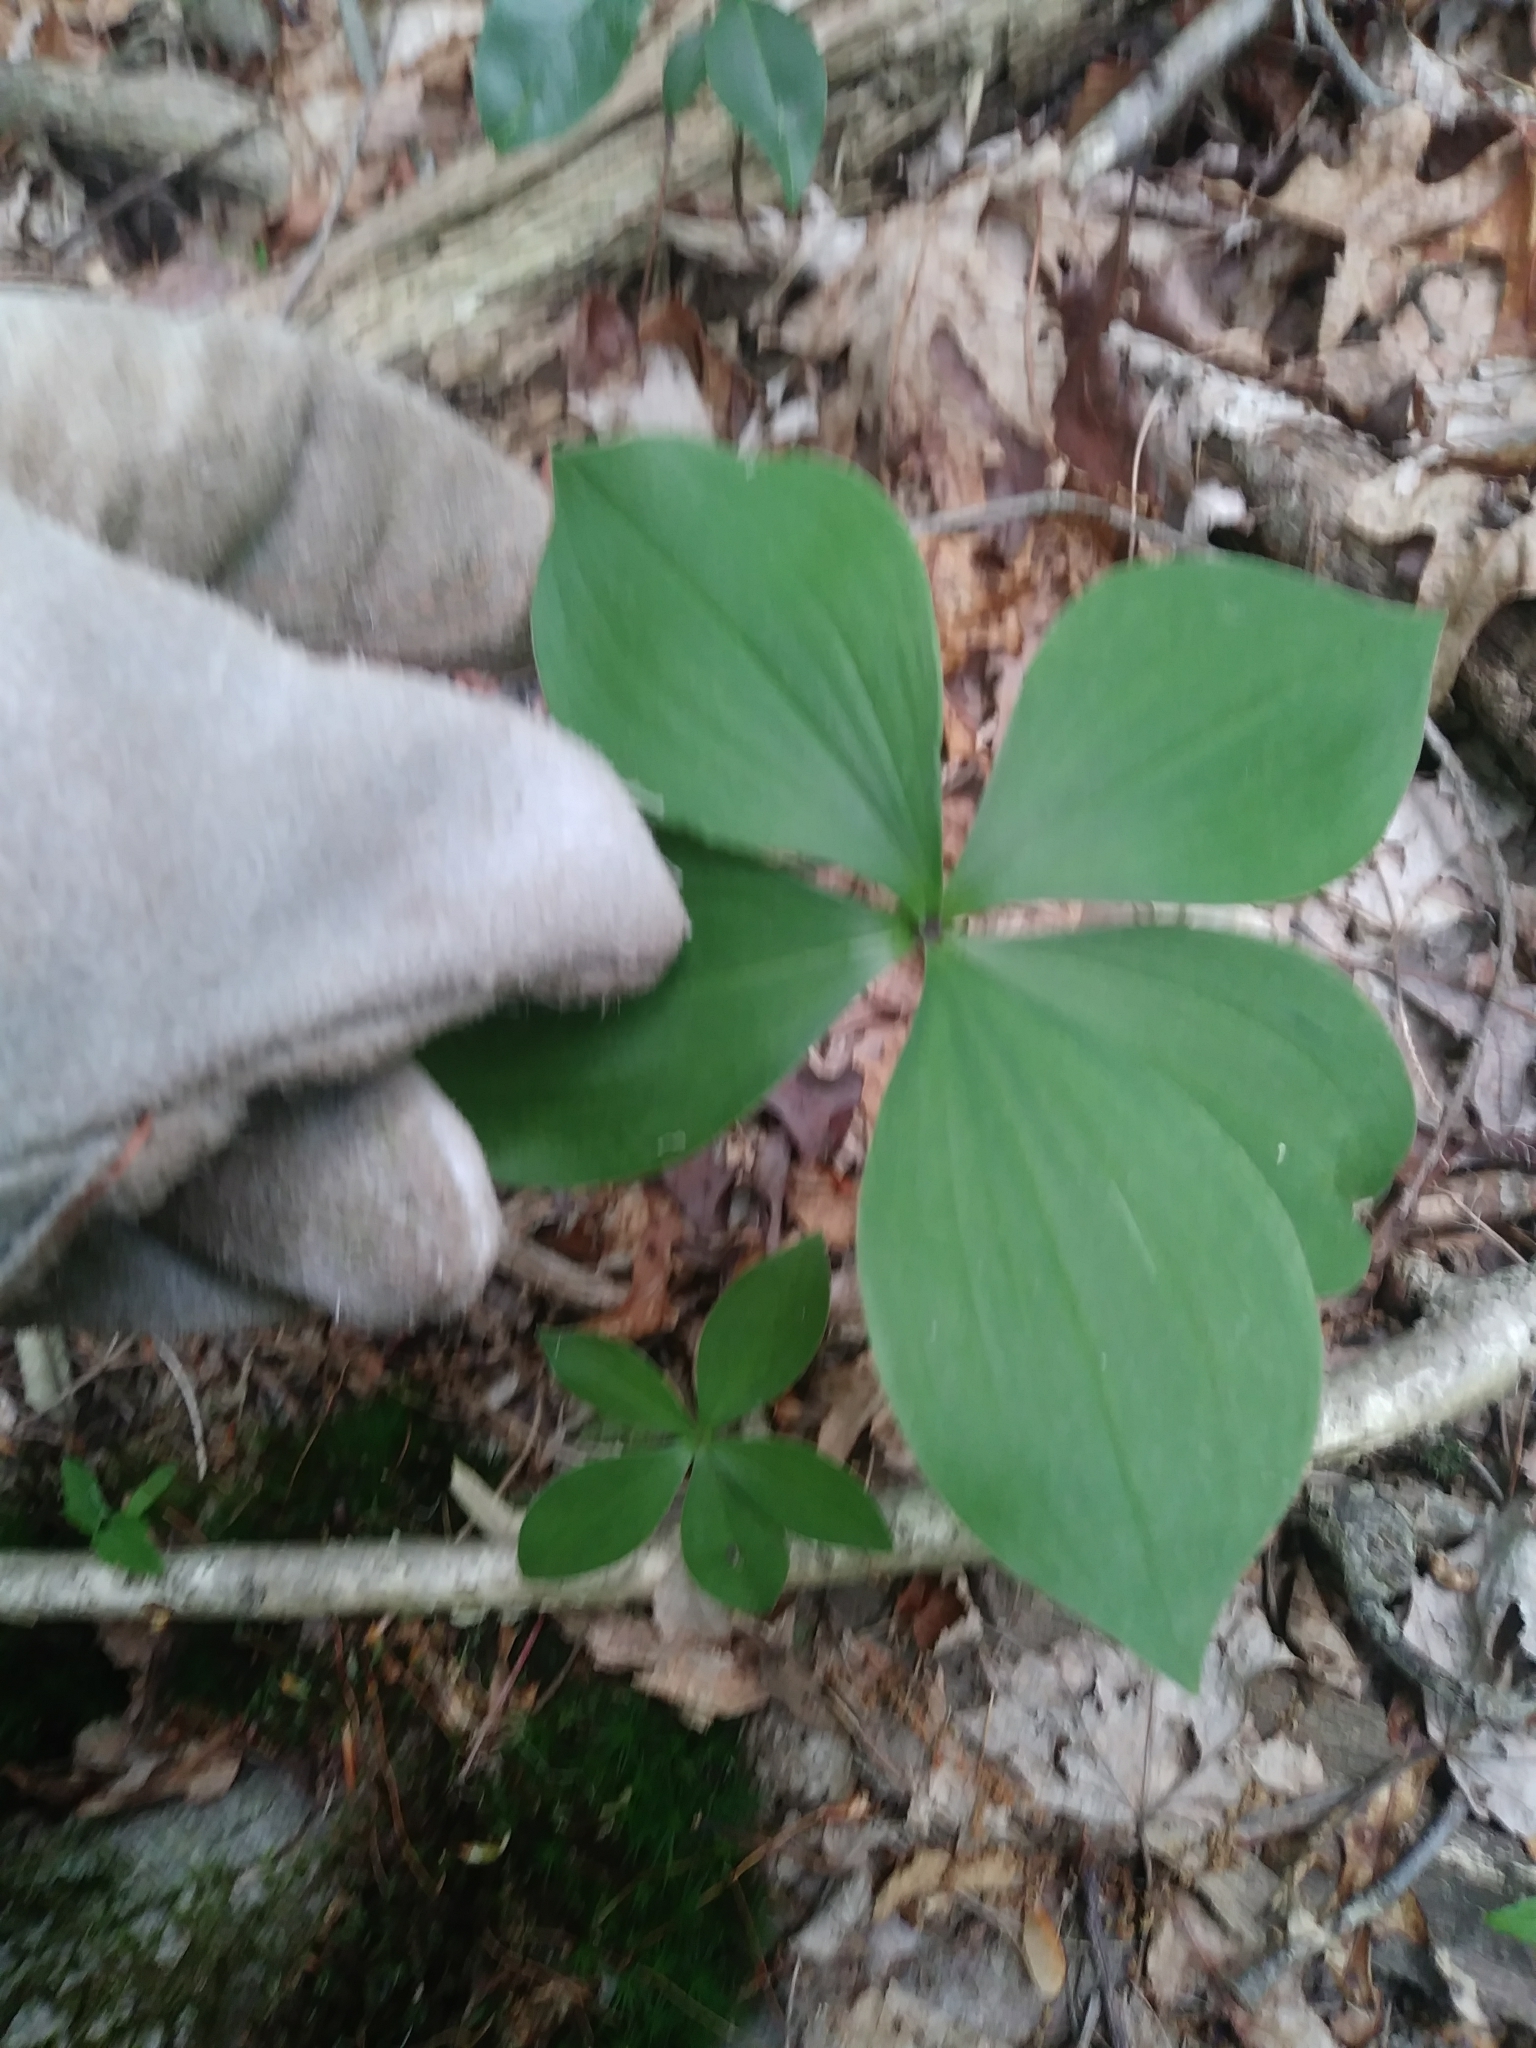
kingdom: Plantae
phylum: Tracheophyta
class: Liliopsida
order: Asparagales
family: Orchidaceae
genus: Isotria
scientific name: Isotria verticillata
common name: Large whorled pogonia
